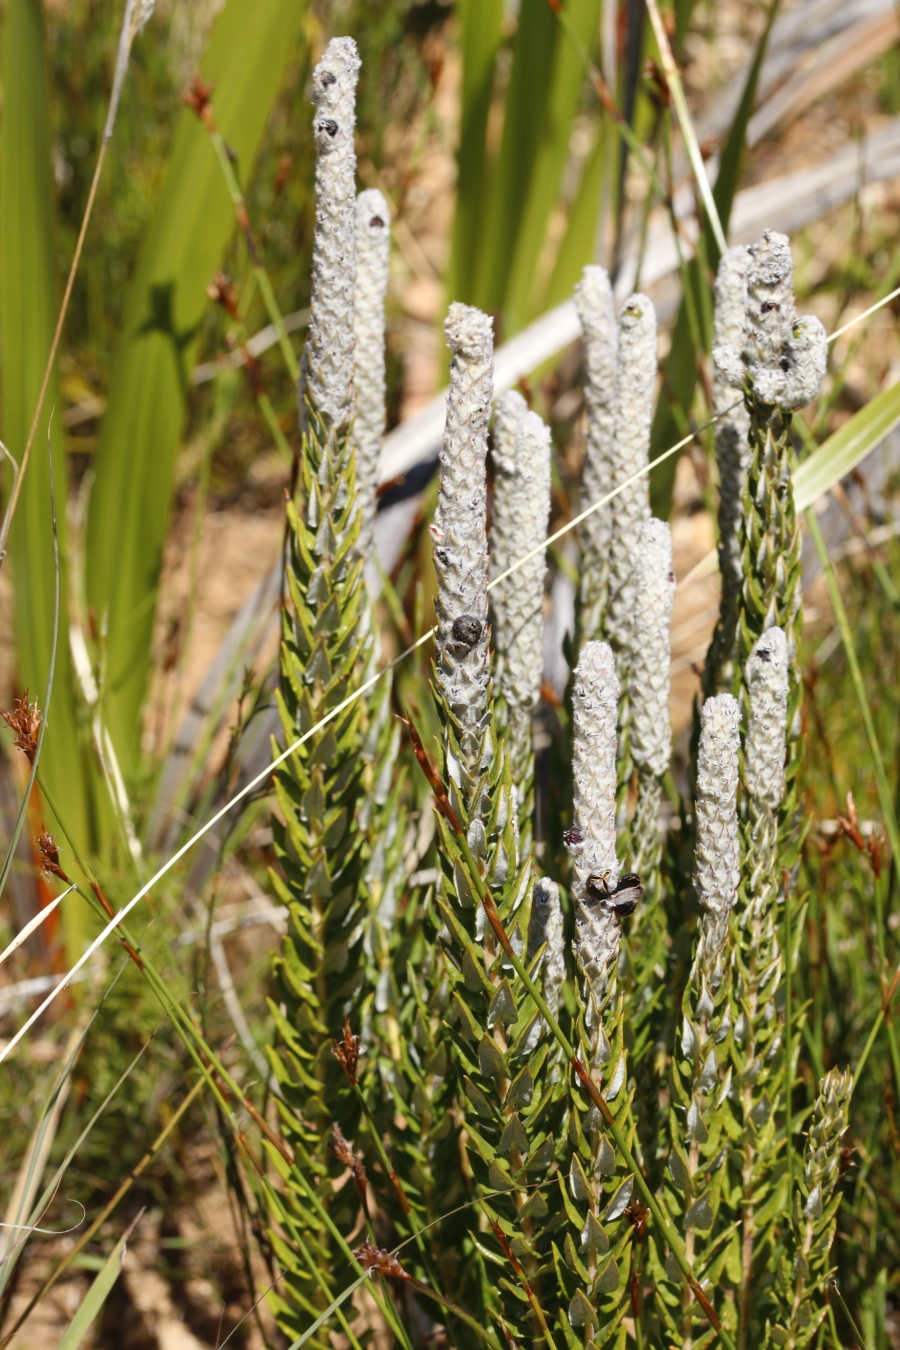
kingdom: Plantae
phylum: Tracheophyta
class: Magnoliopsida
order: Rosales
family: Rhamnaceae
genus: Phylica
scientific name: Phylica spicata
